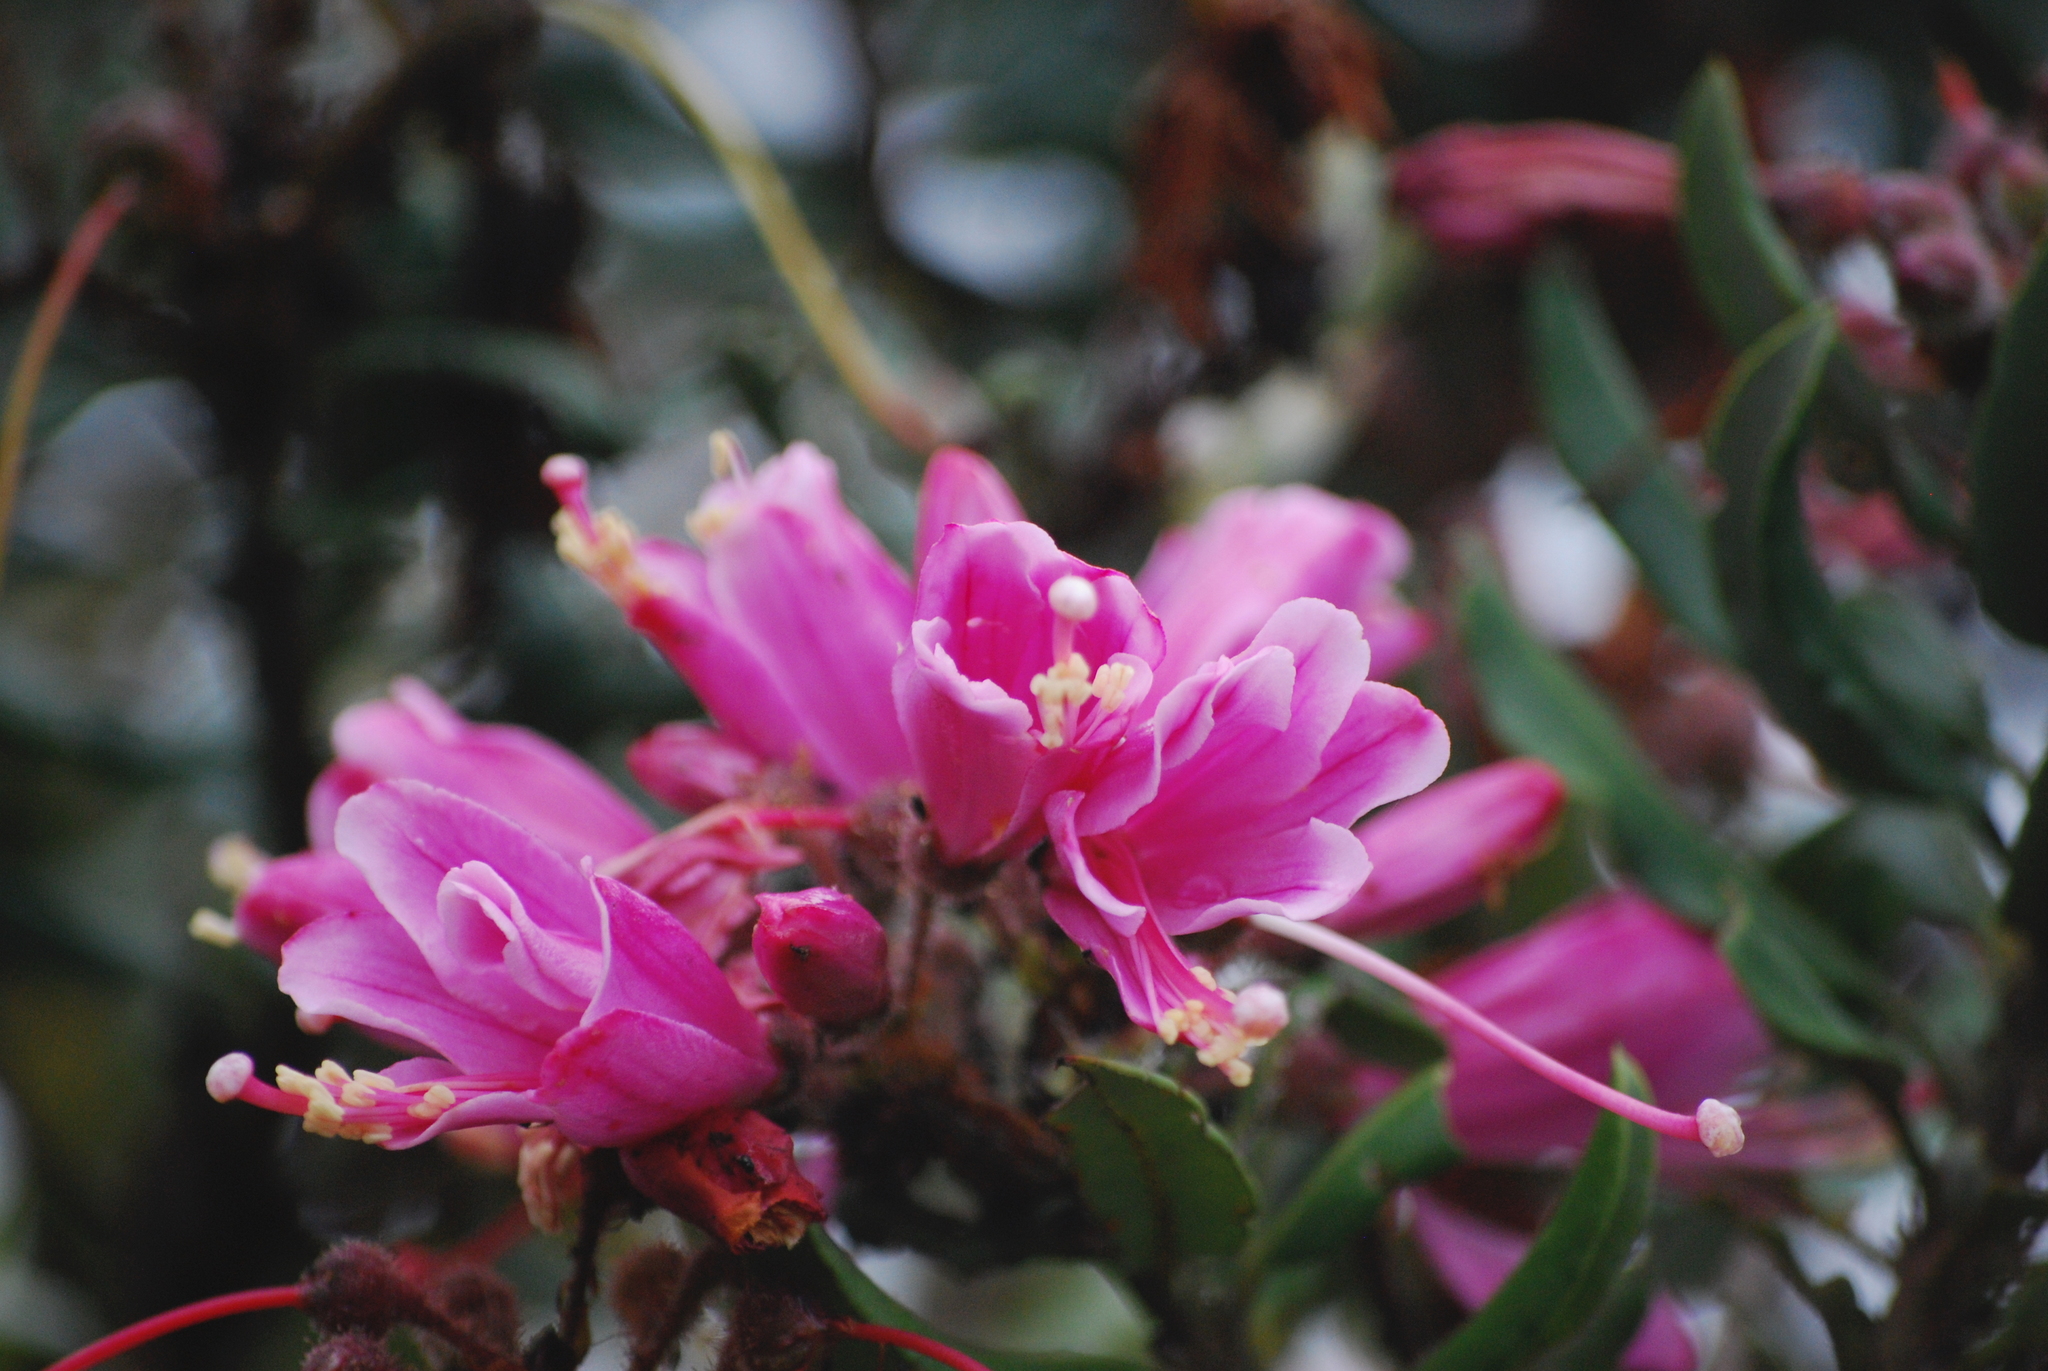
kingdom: Plantae
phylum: Tracheophyta
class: Magnoliopsida
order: Ericales
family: Ericaceae
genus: Bejaria
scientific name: Bejaria mathewsii
